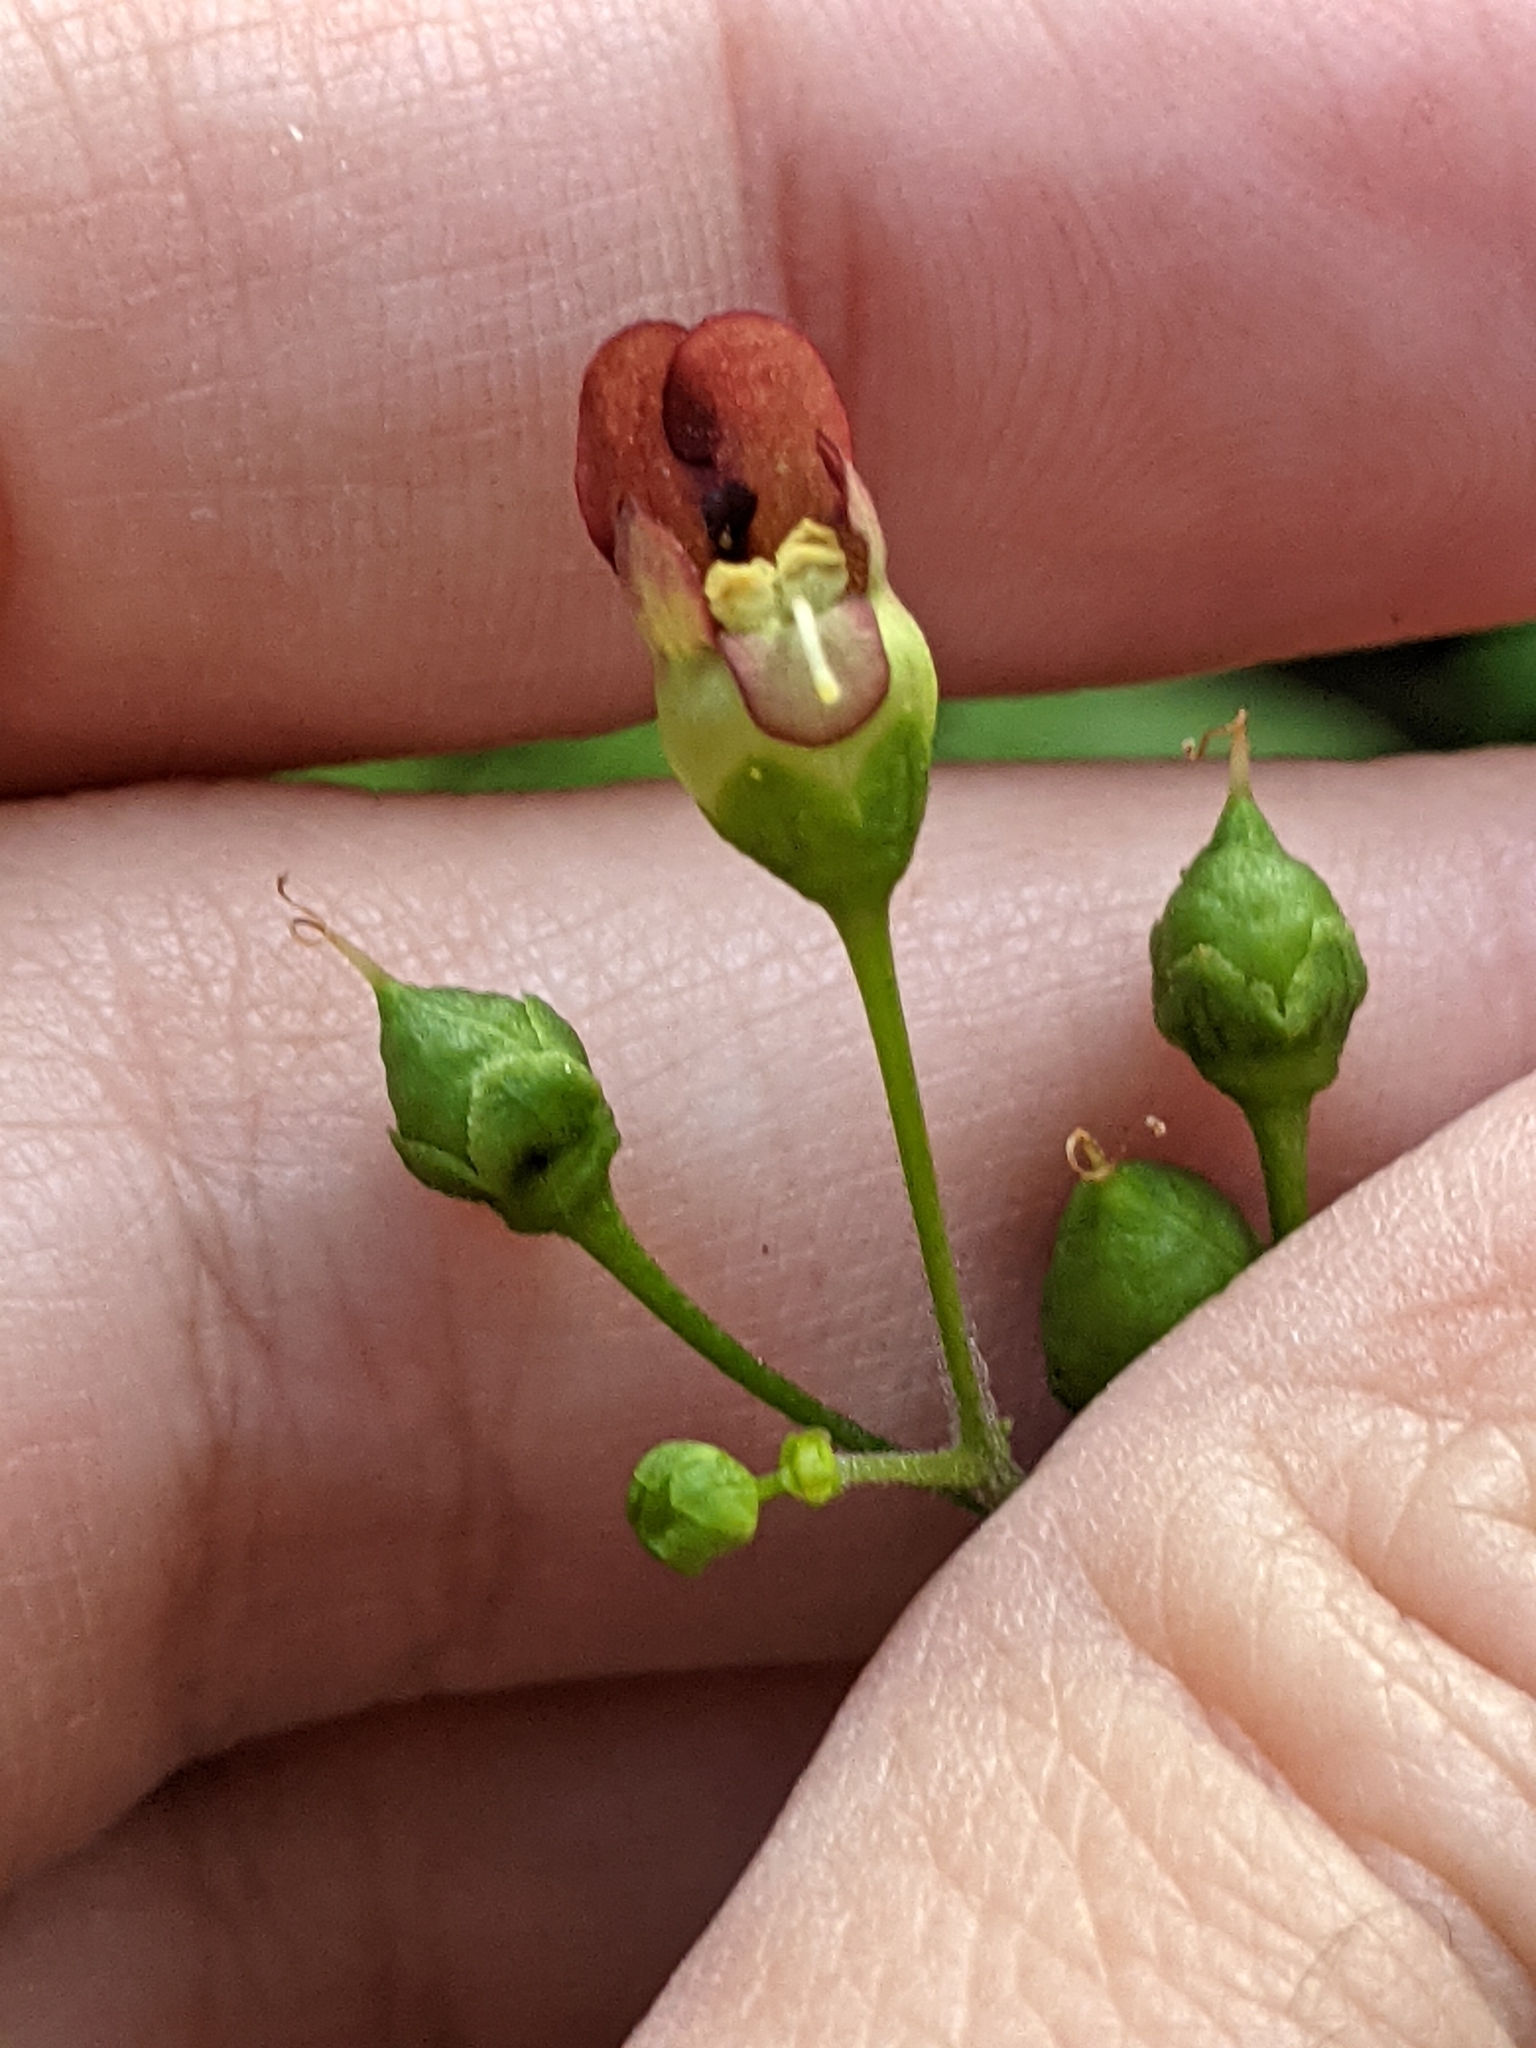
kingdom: Plantae
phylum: Tracheophyta
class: Magnoliopsida
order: Lamiales
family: Scrophulariaceae
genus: Scrophularia
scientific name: Scrophularia marilandica
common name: Eastern figwort
